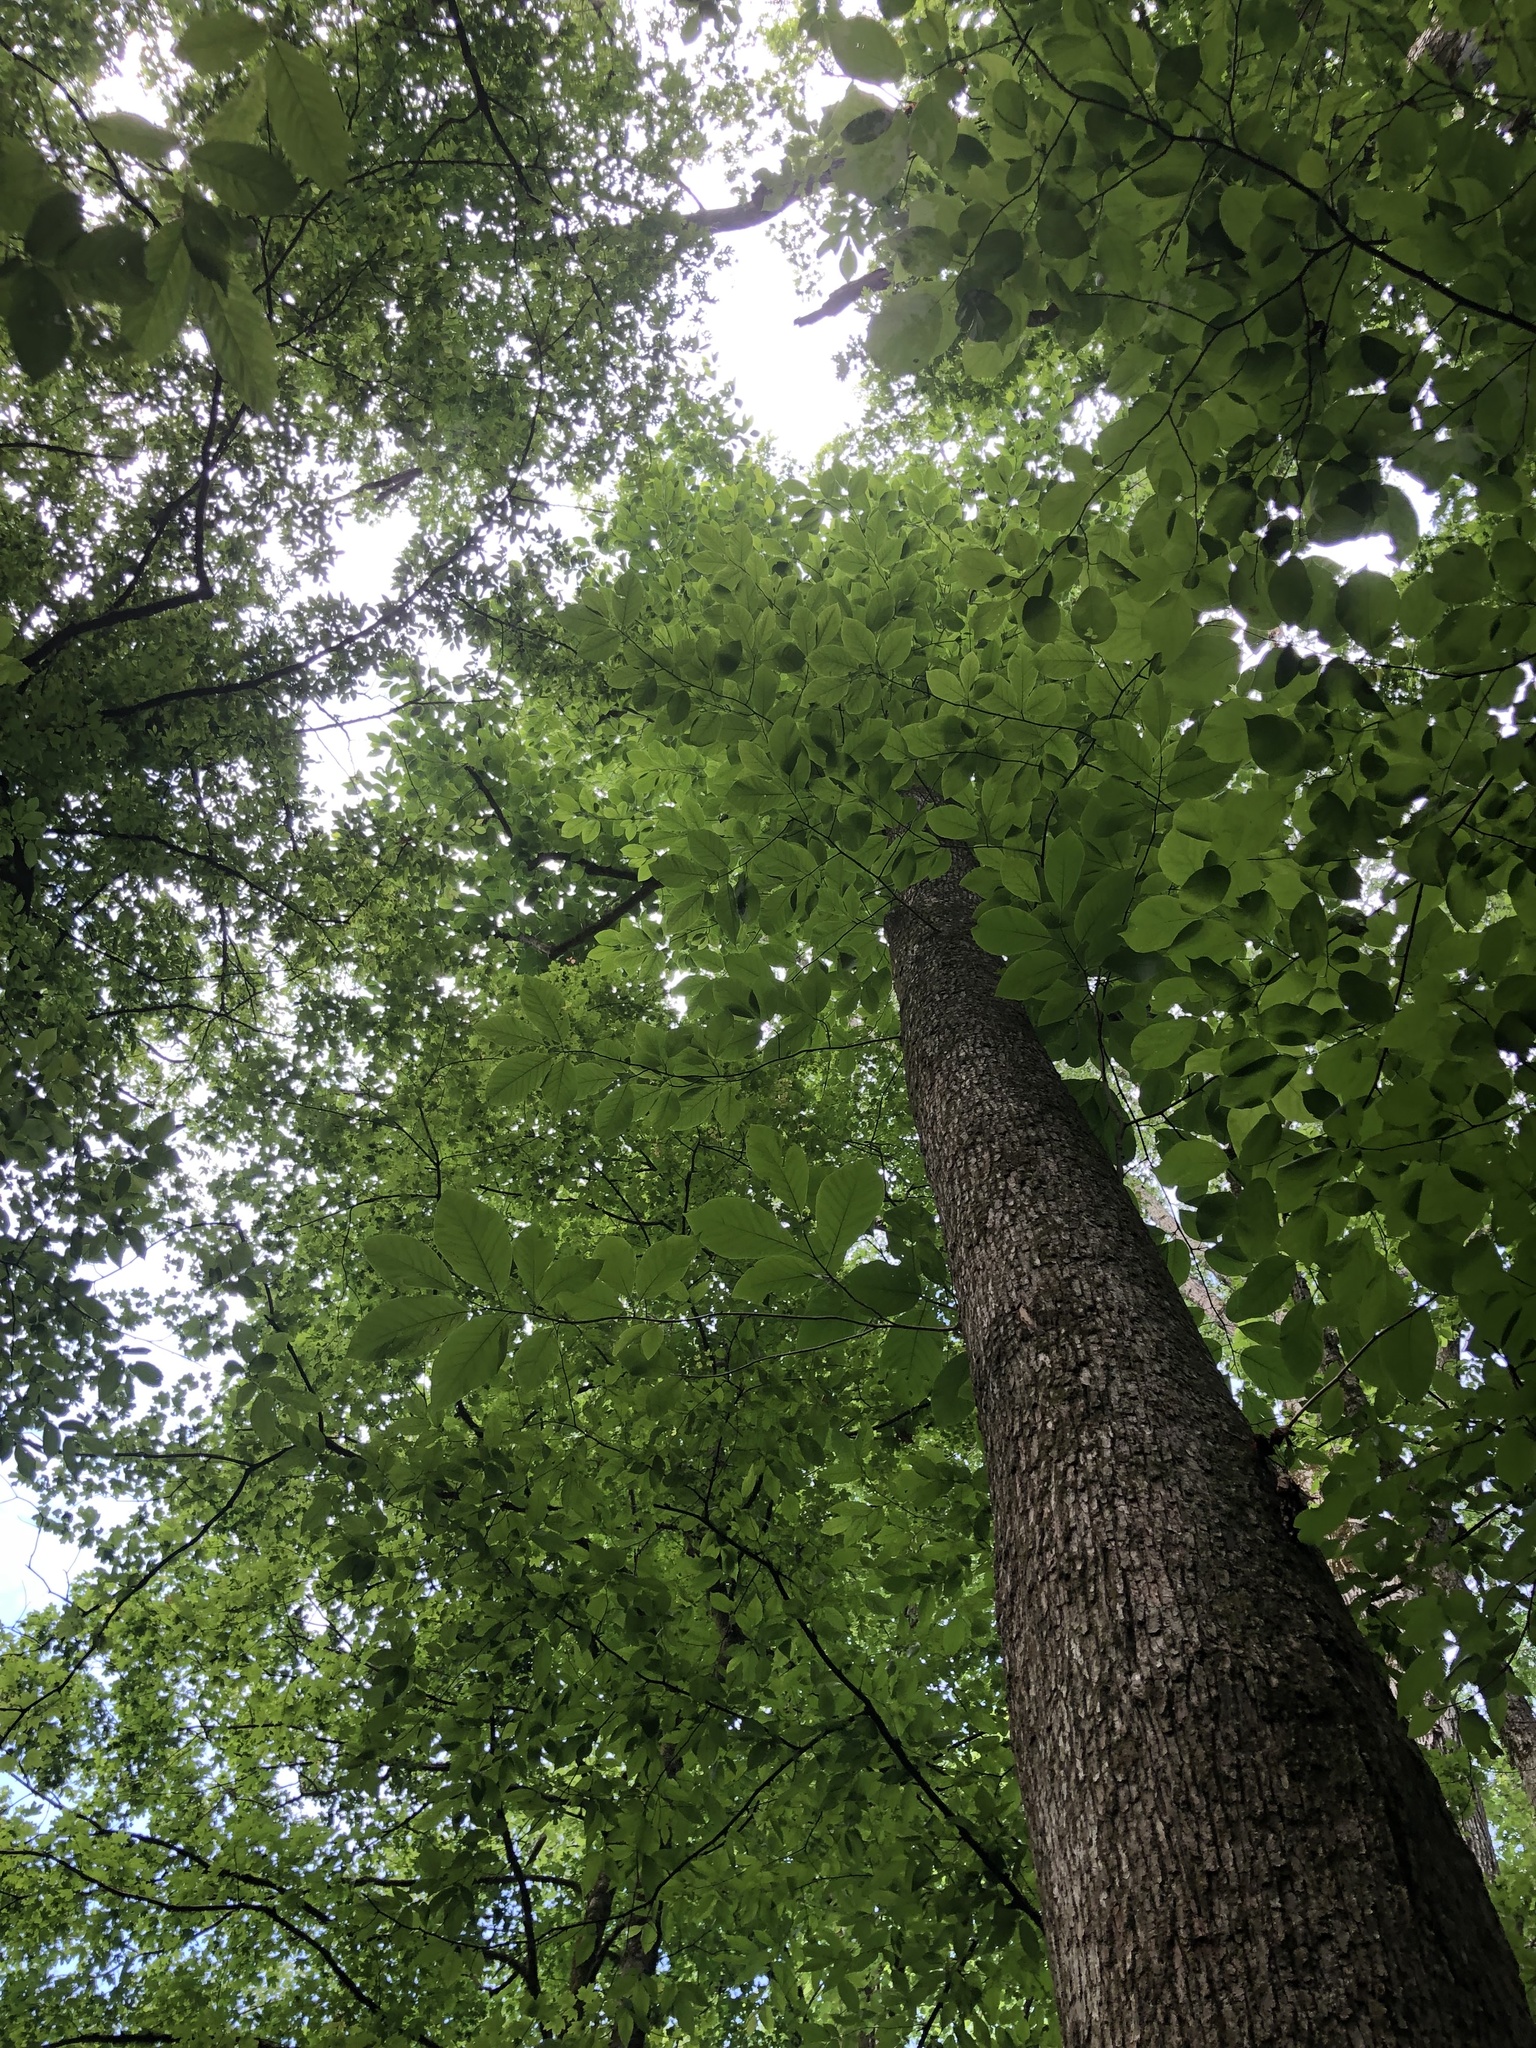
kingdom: Plantae
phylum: Tracheophyta
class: Magnoliopsida
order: Magnoliales
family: Magnoliaceae
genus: Magnolia
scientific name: Magnolia acuminata
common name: Cucumber magnolia
